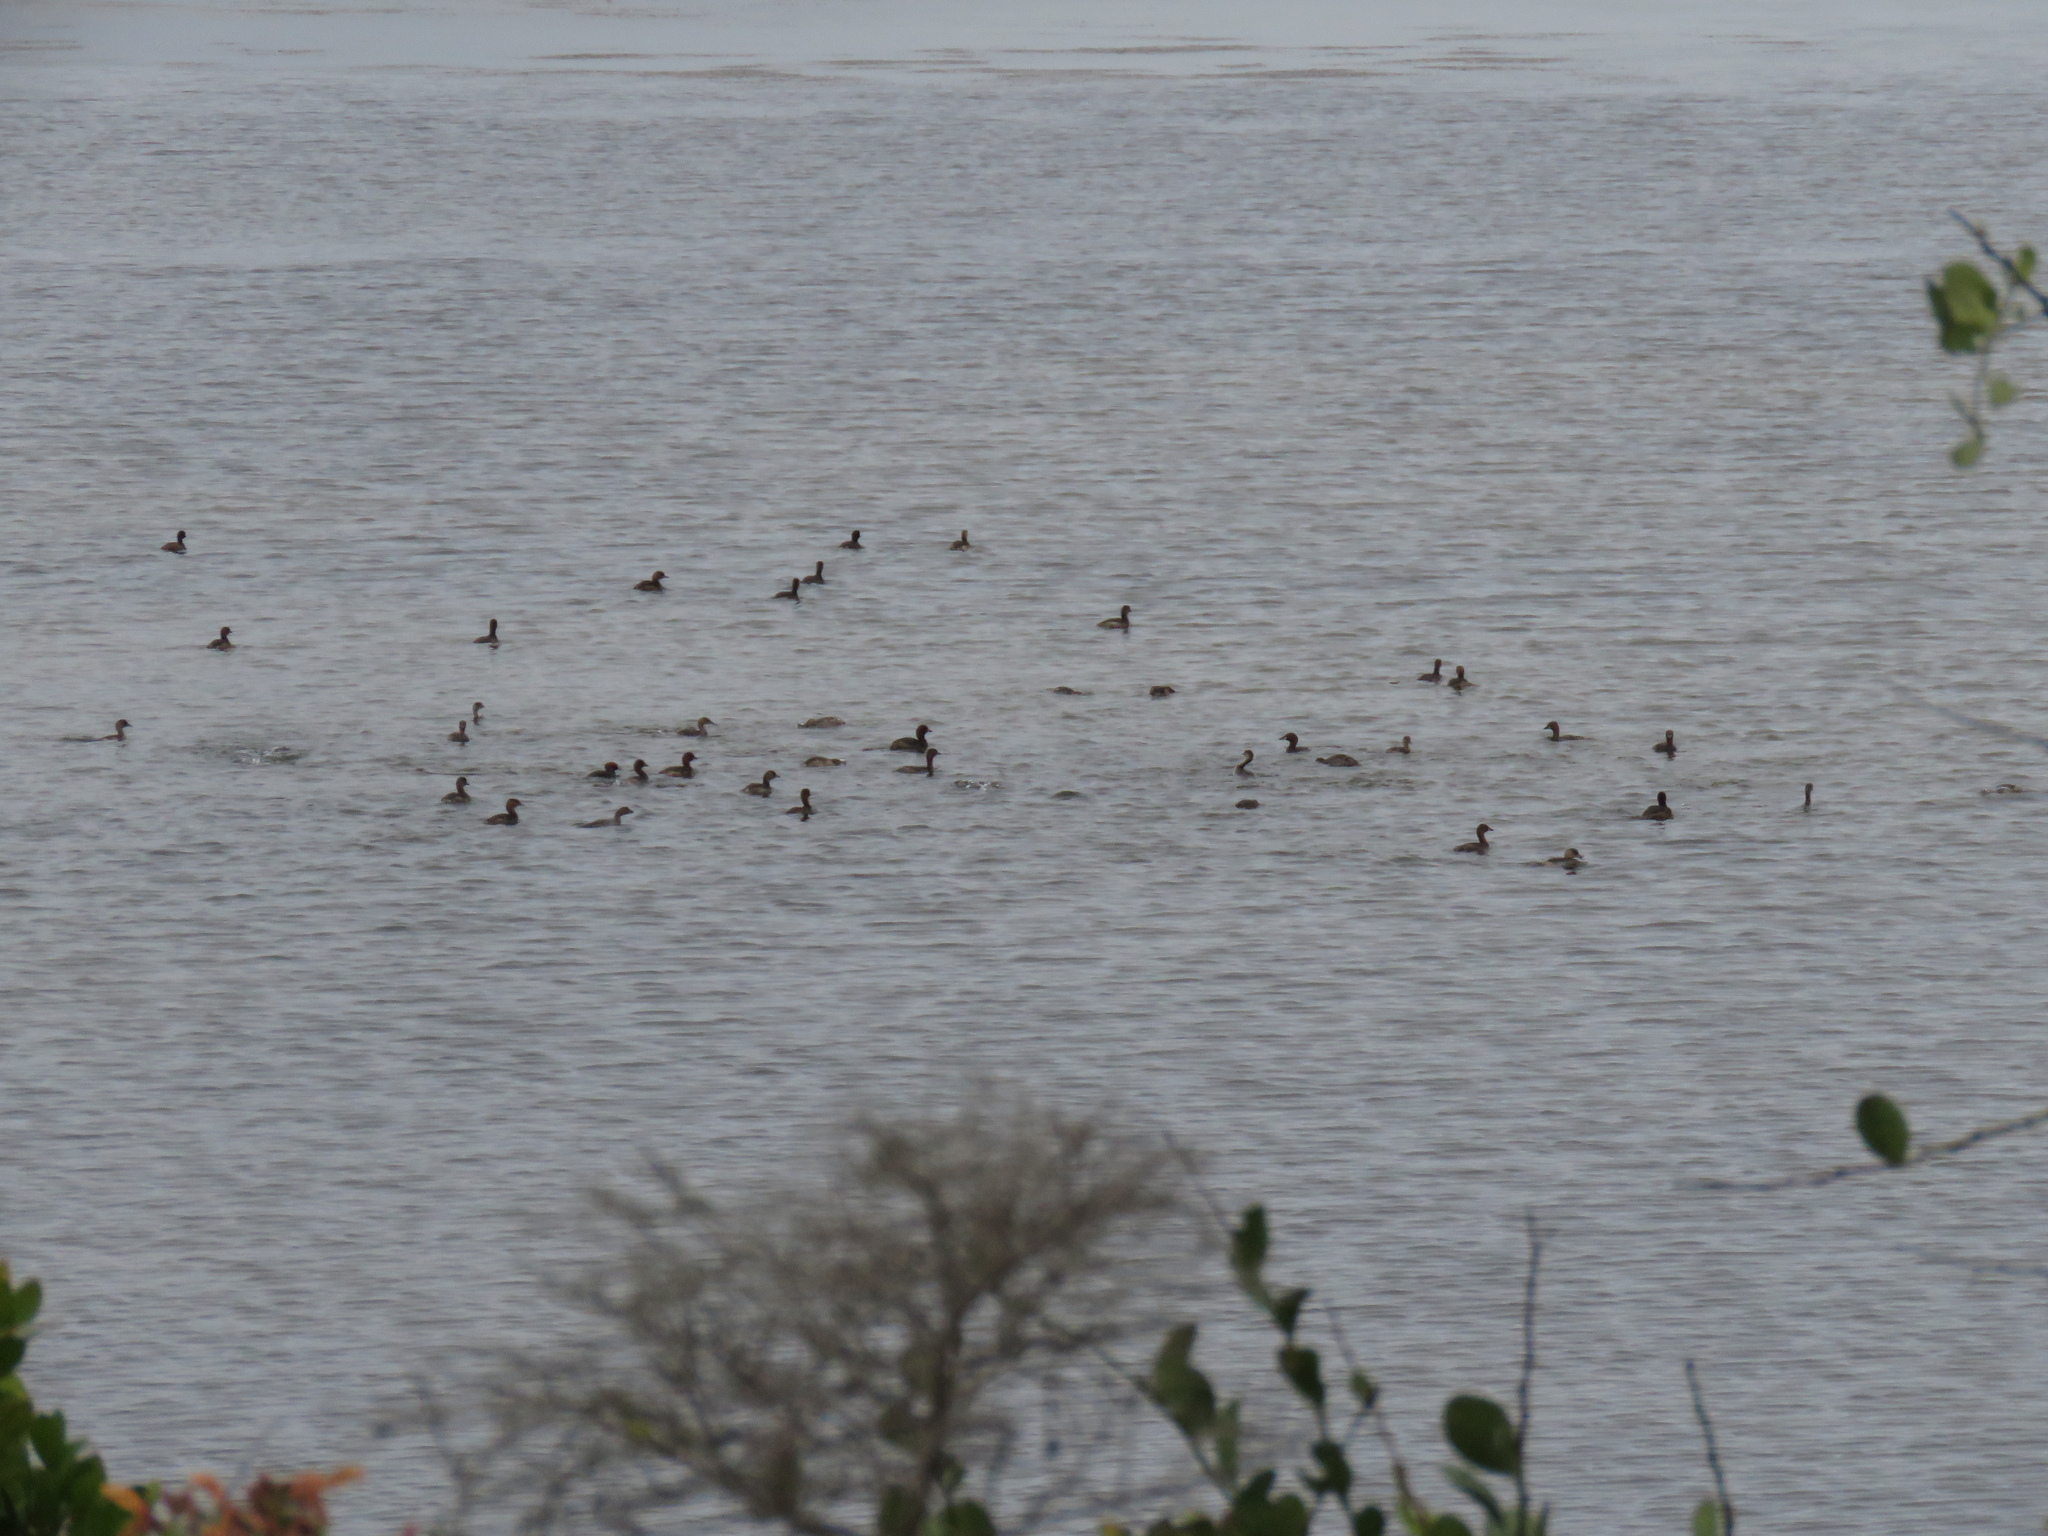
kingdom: Animalia
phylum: Chordata
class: Aves
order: Podicipediformes
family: Podicipedidae
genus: Tachybaptus
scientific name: Tachybaptus ruficollis
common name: Little grebe
